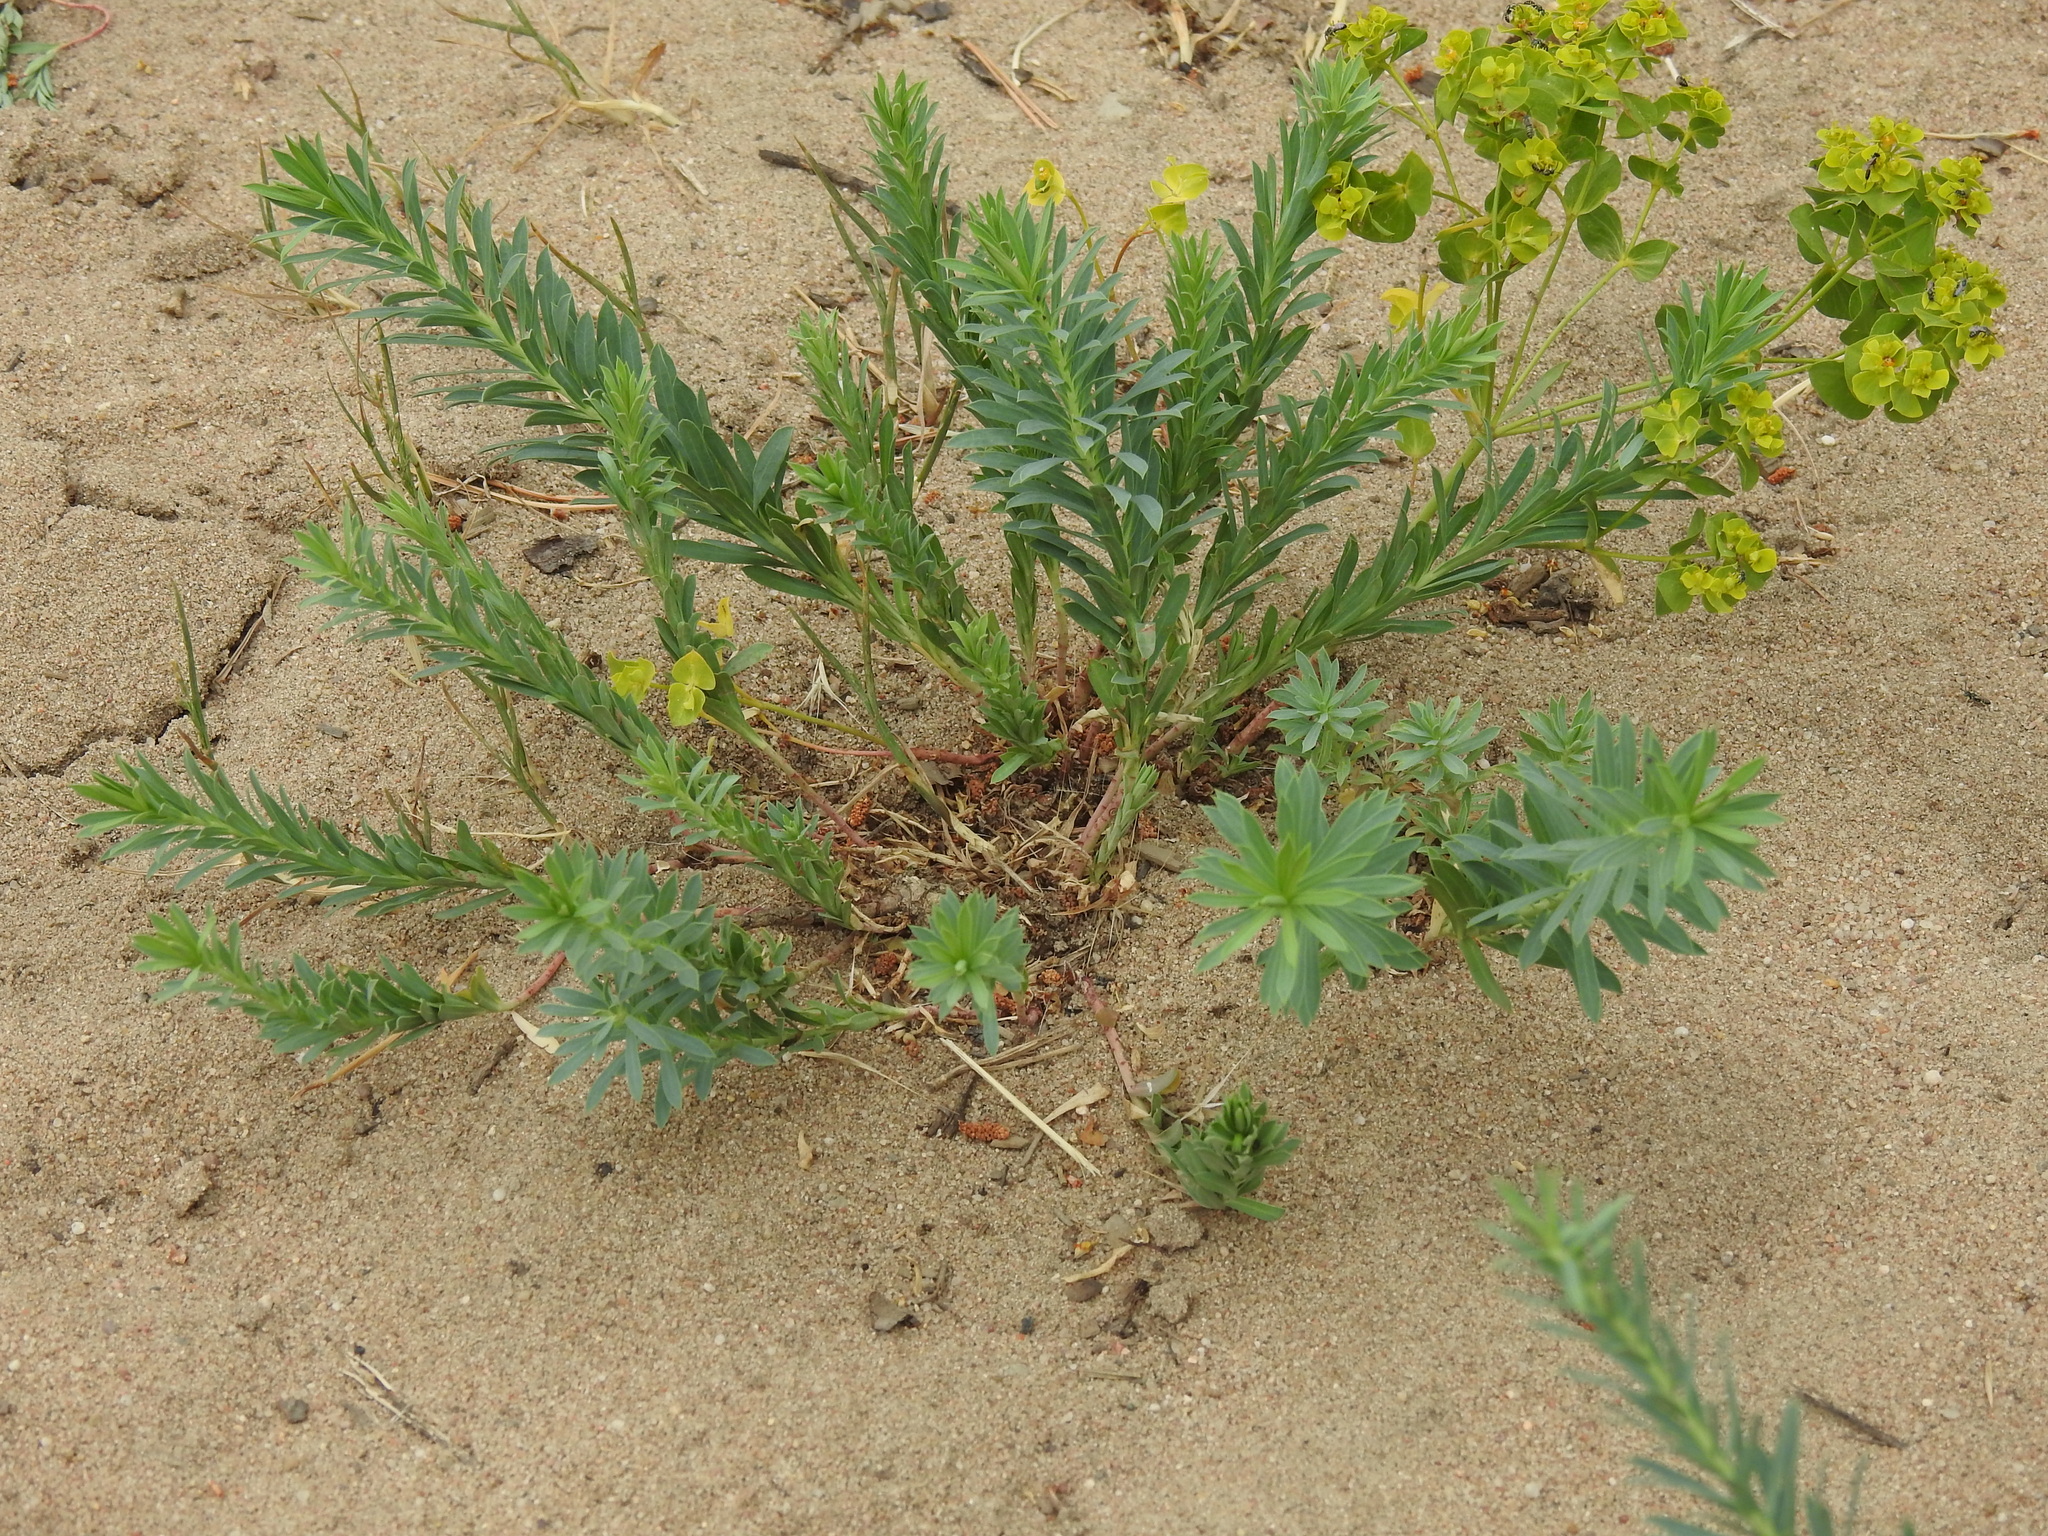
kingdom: Plantae
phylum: Tracheophyta
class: Magnoliopsida
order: Malpighiales
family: Euphorbiaceae
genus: Euphorbia
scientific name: Euphorbia seguieriana
